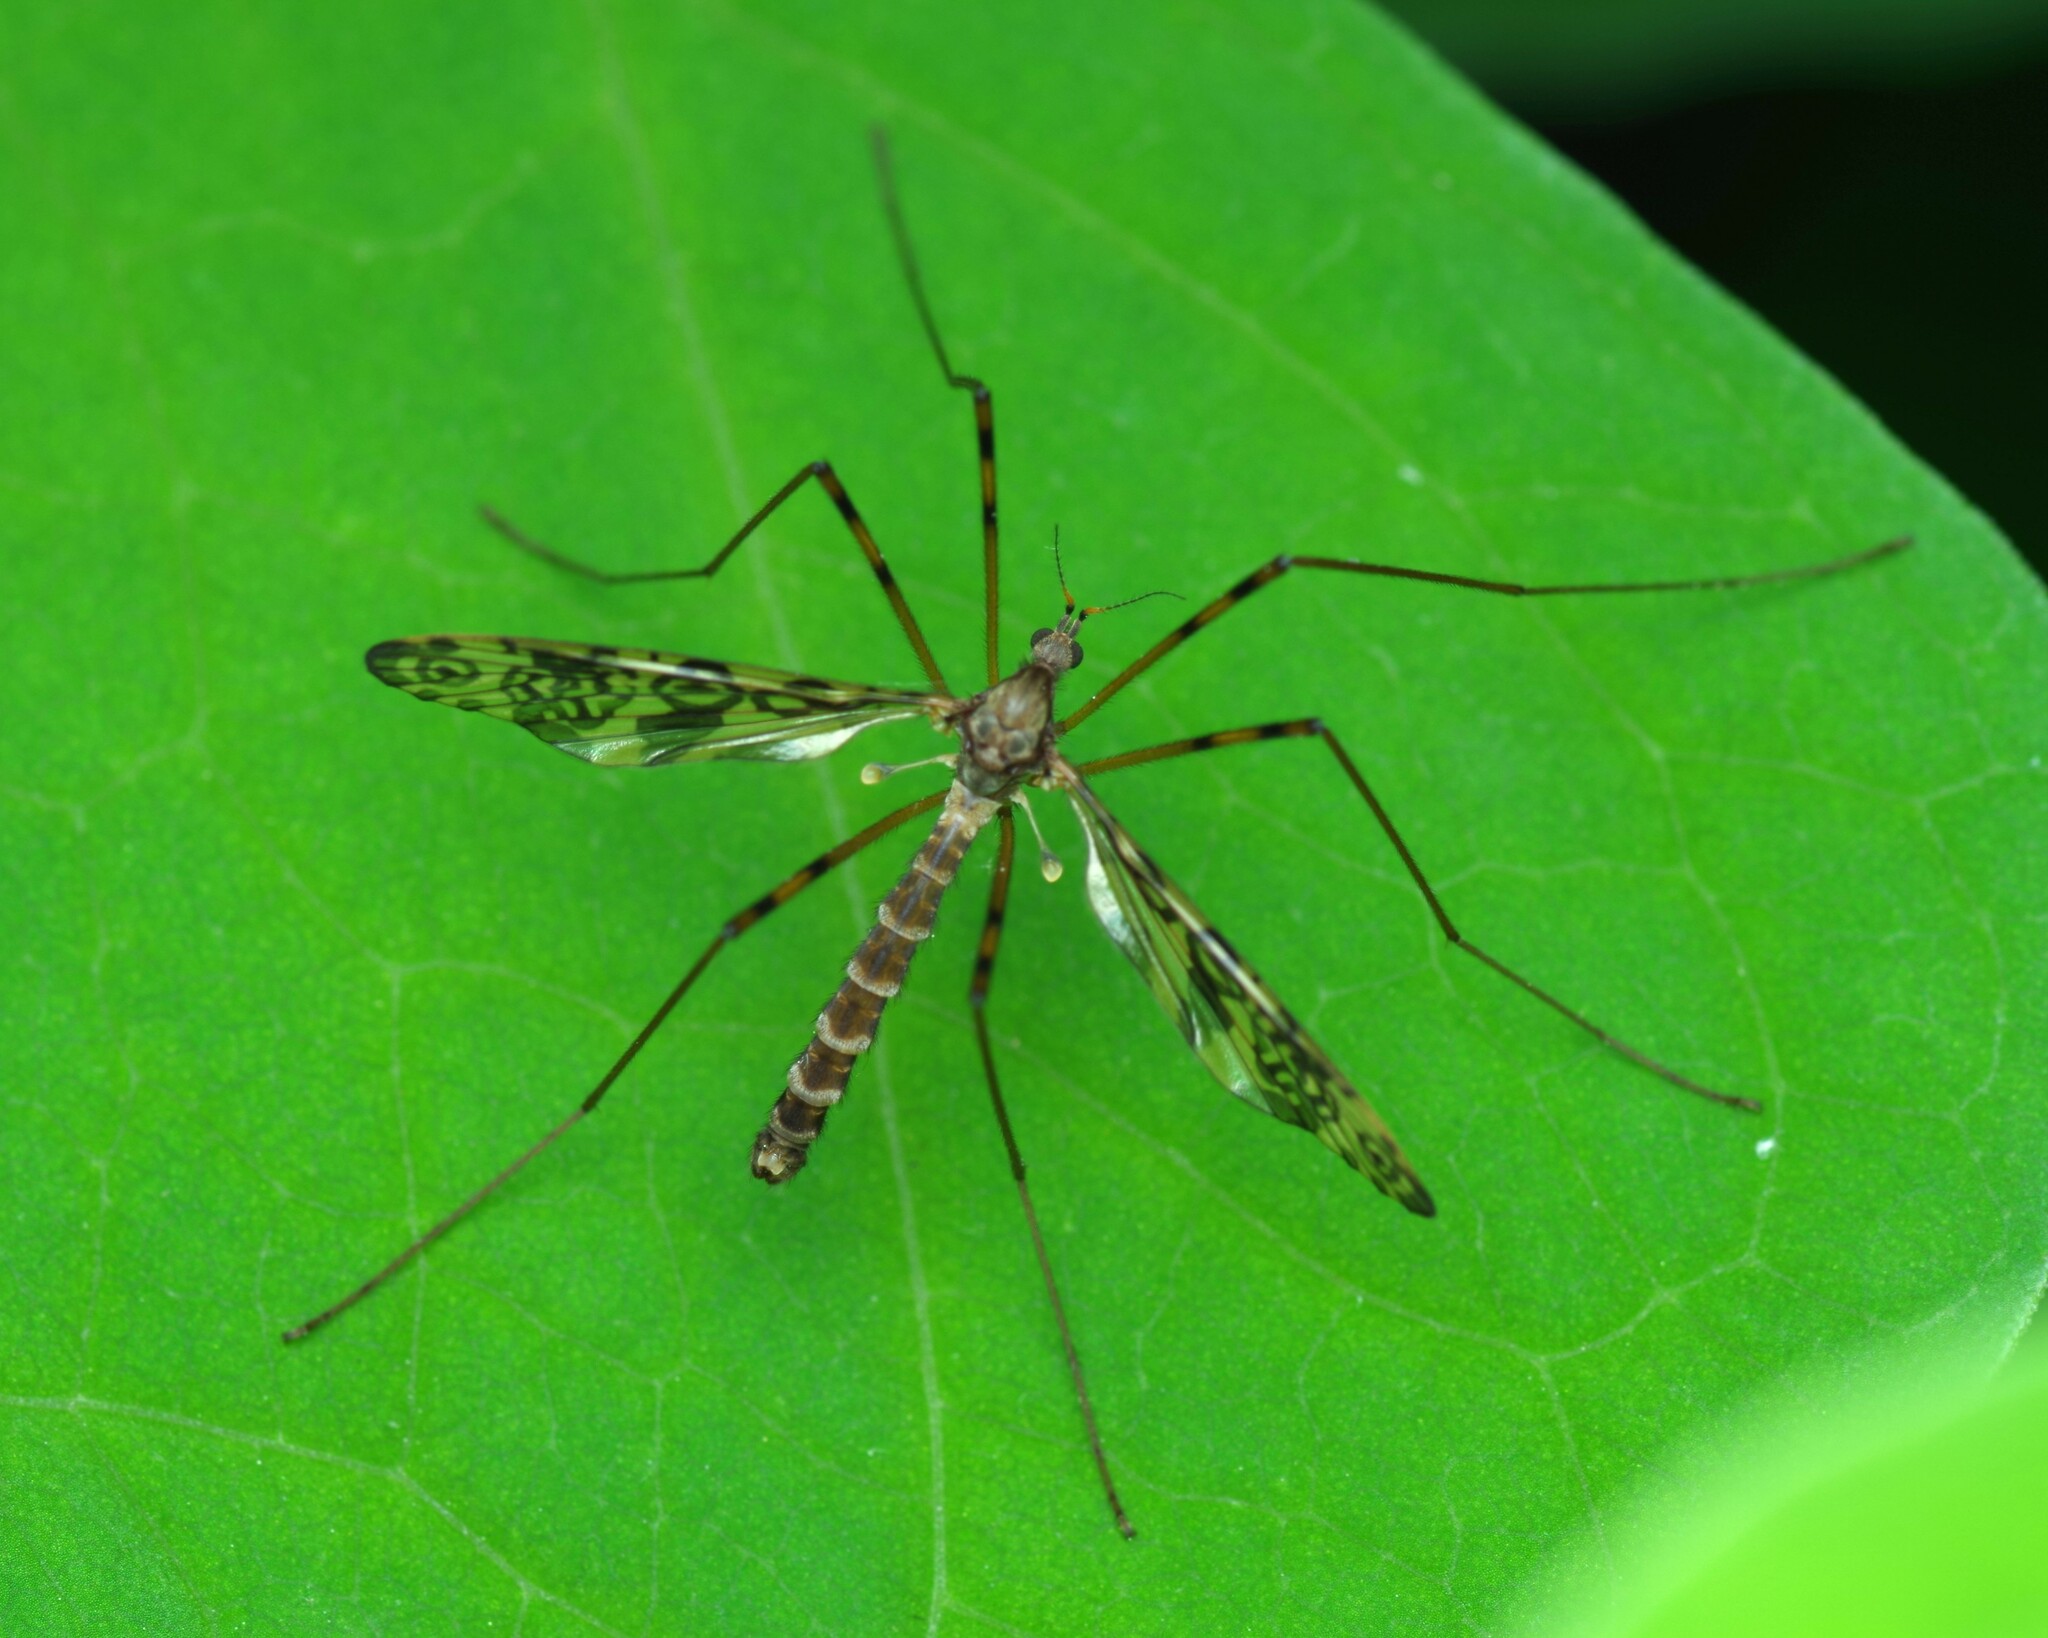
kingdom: Animalia
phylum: Arthropoda
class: Insecta
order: Diptera
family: Limoniidae
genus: Epiphragma
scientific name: Epiphragma ocellare
